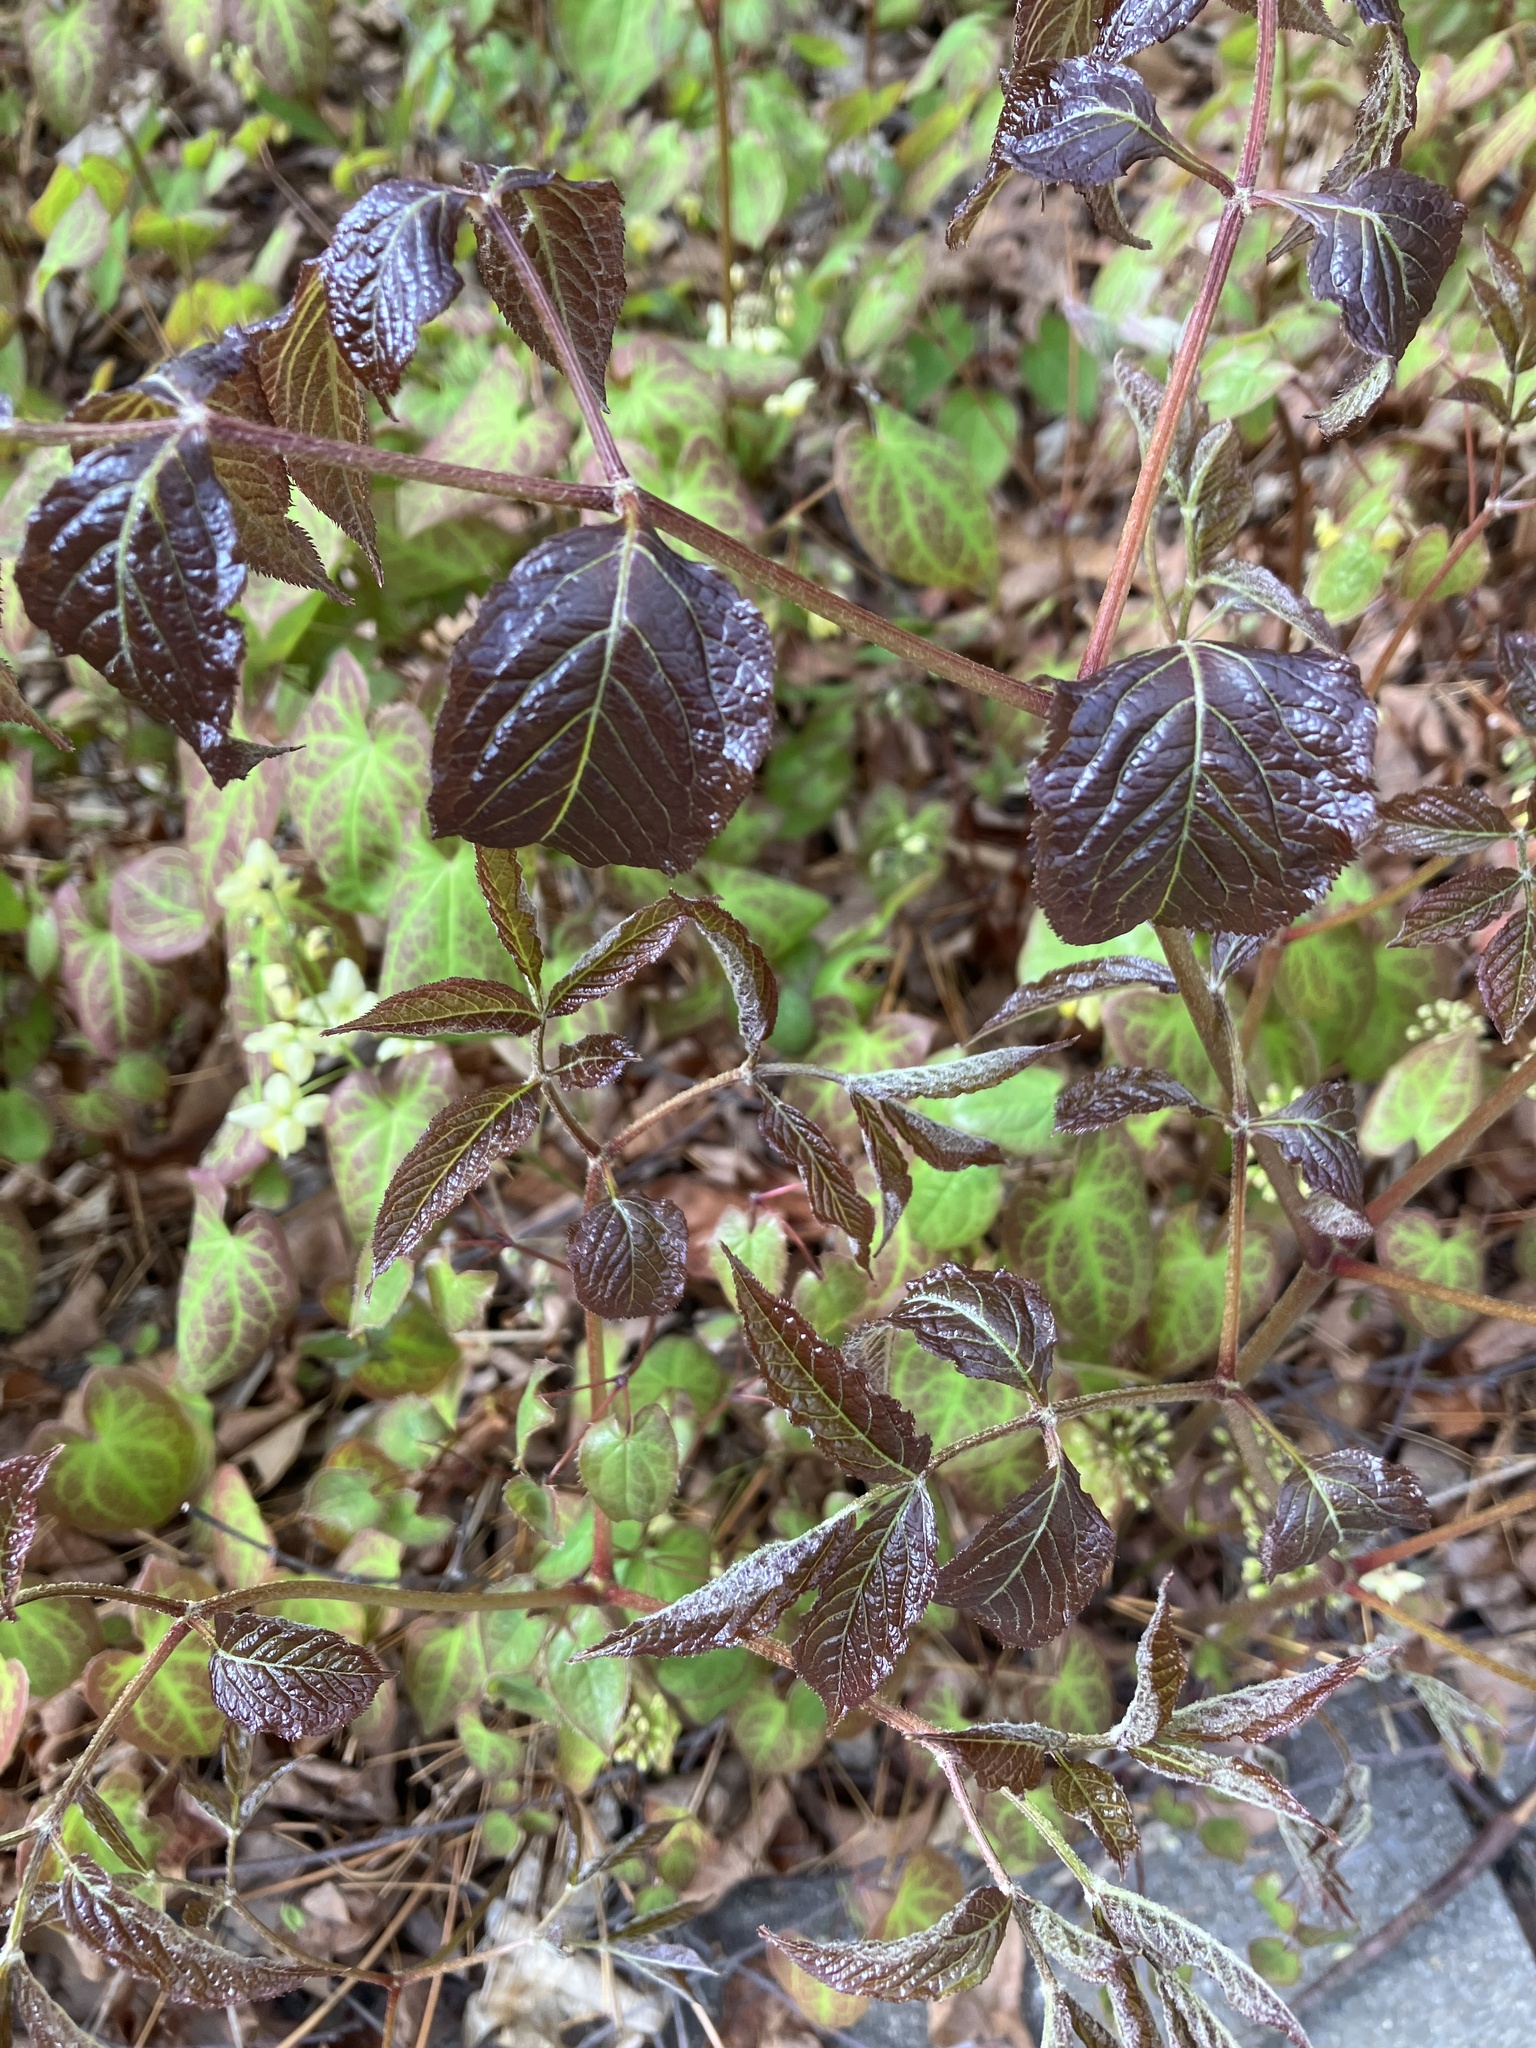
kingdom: Plantae
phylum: Tracheophyta
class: Magnoliopsida
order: Apiales
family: Araliaceae
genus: Aralia
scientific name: Aralia nudicaulis
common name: Wild sarsaparilla
